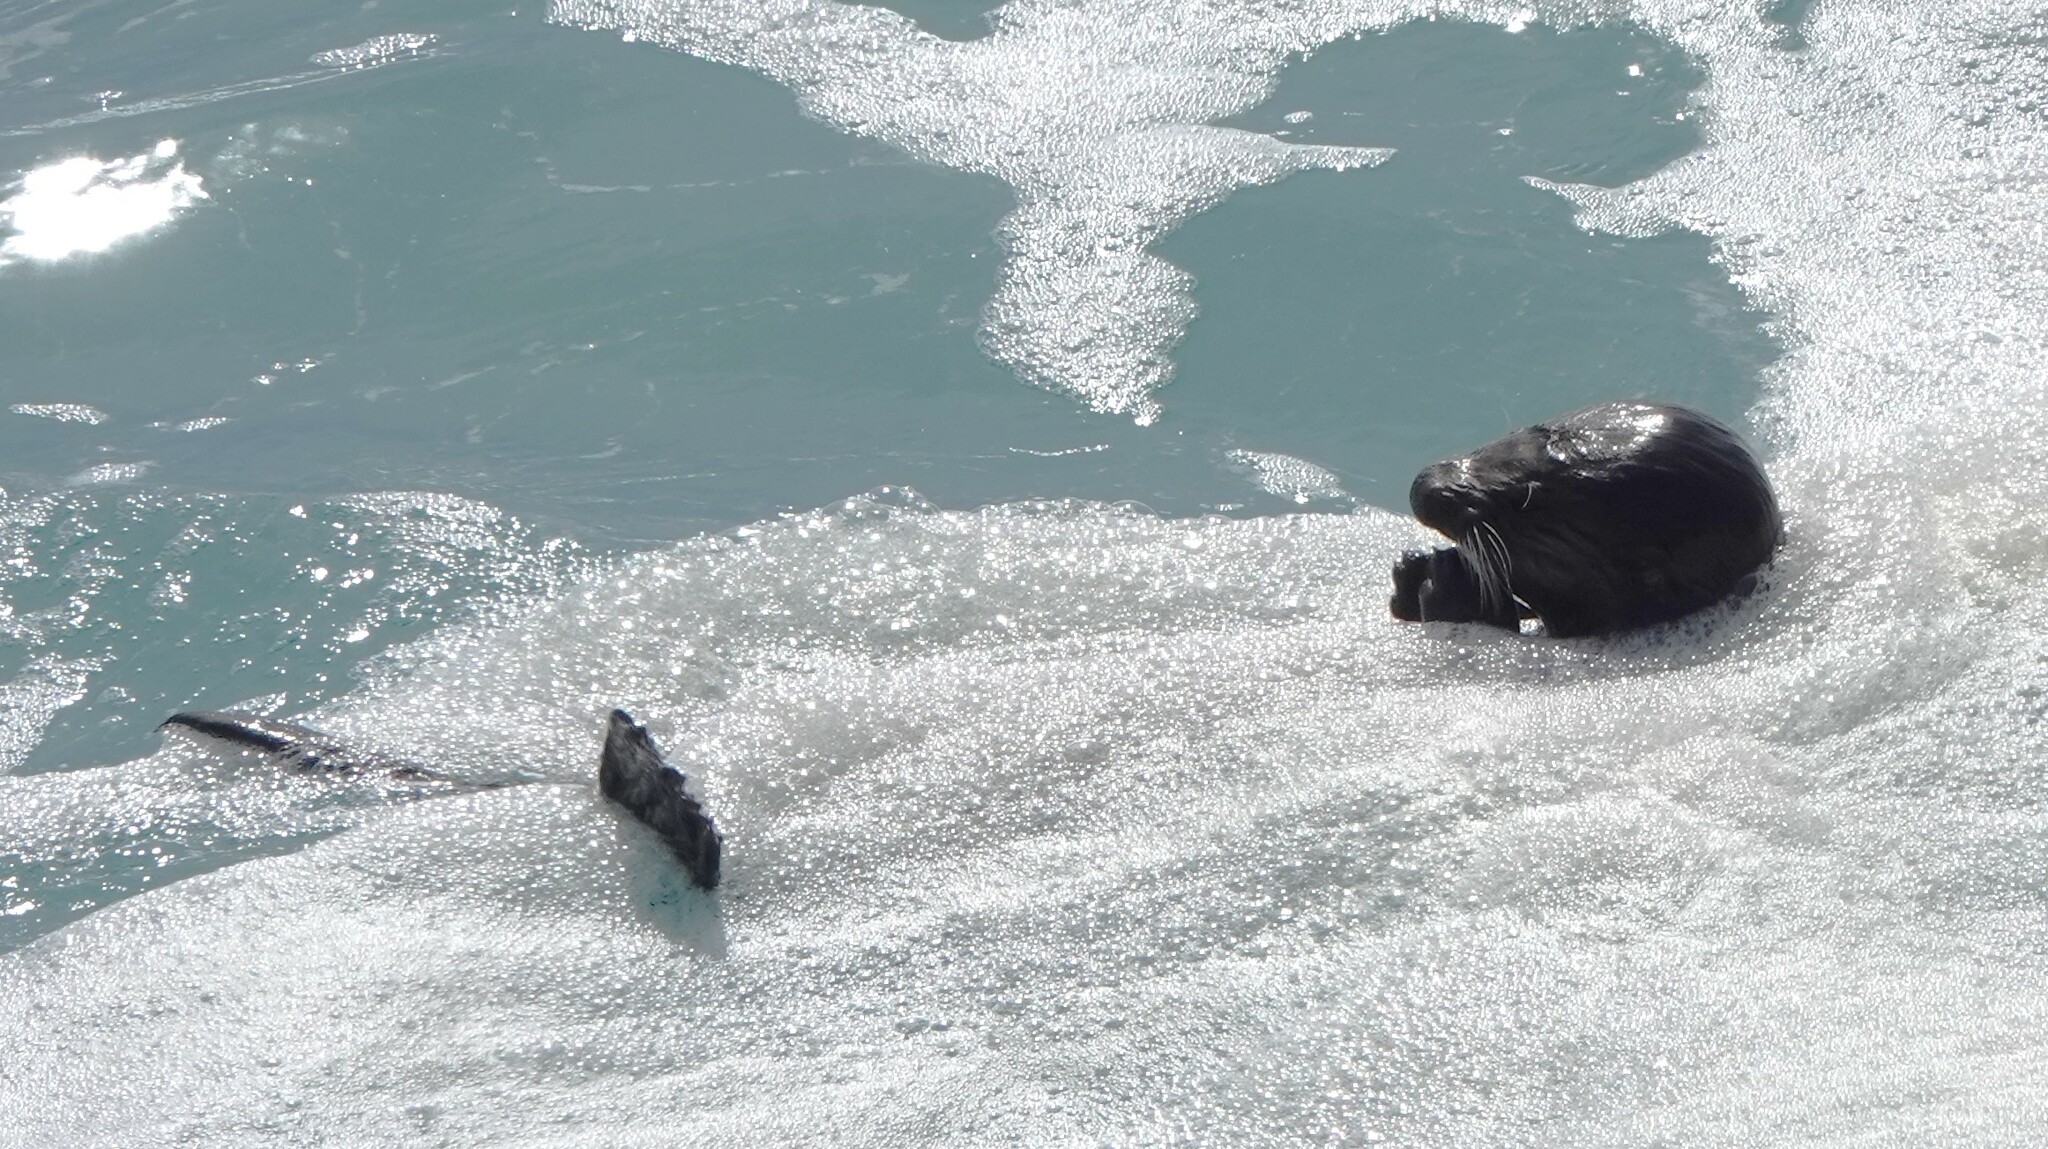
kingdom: Animalia
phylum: Chordata
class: Mammalia
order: Carnivora
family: Mustelidae
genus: Enhydra
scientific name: Enhydra lutris
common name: Sea otter
